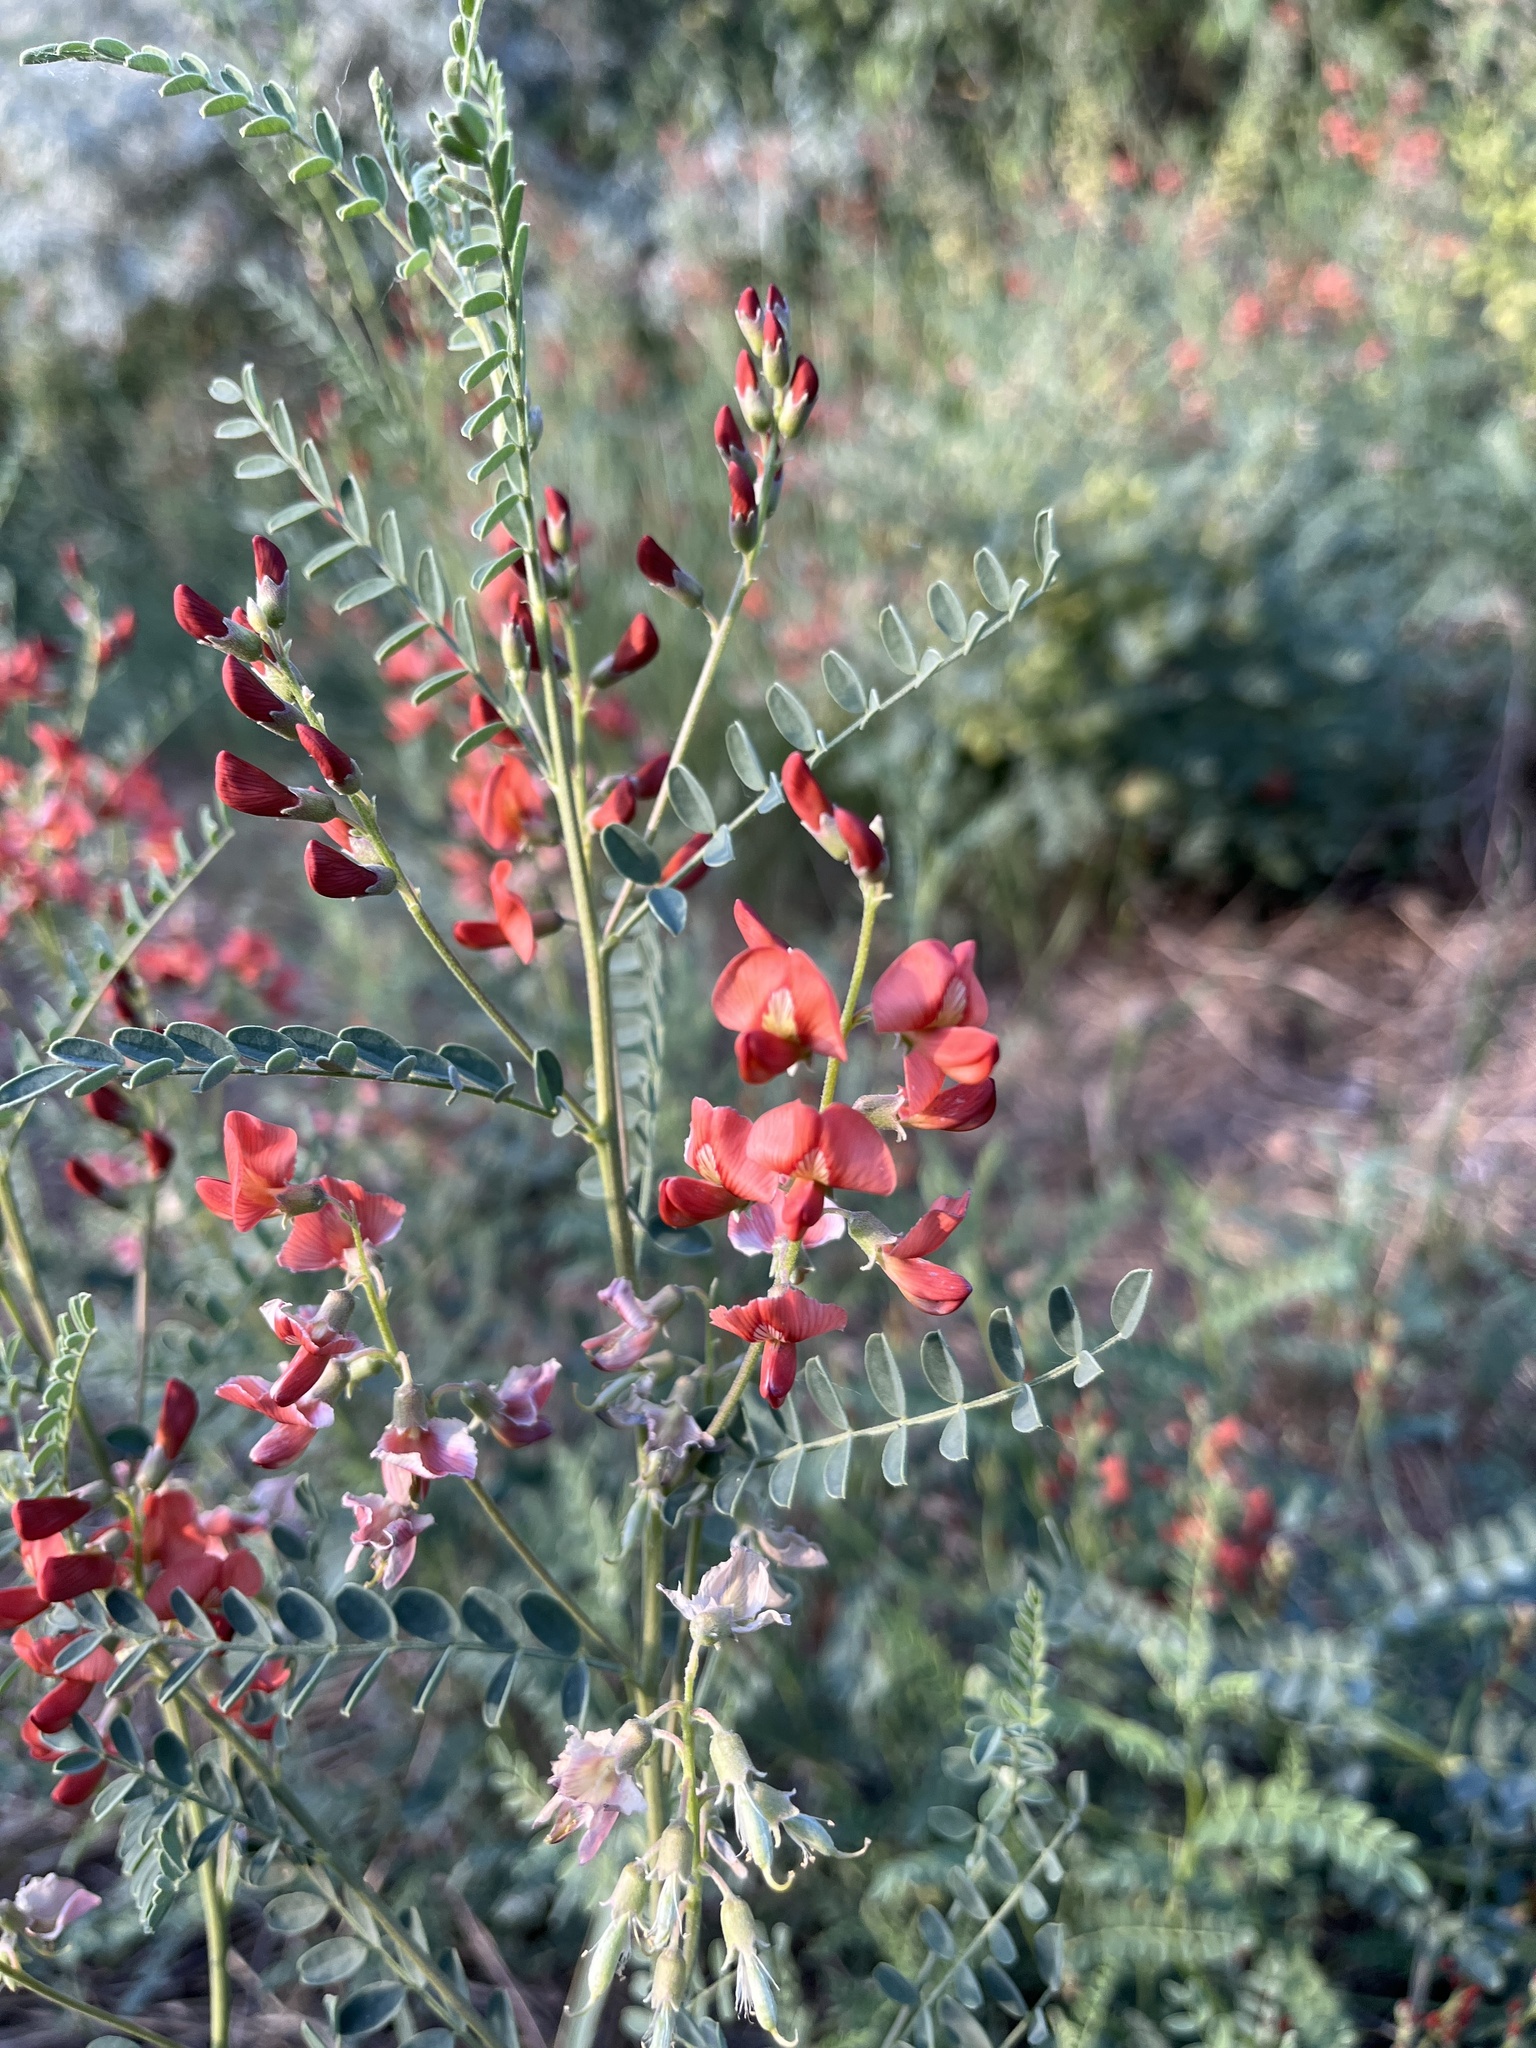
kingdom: Plantae
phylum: Tracheophyta
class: Magnoliopsida
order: Fabales
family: Fabaceae
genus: Sphaerophysa
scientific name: Sphaerophysa salsula
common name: Alkali swainsonpea
